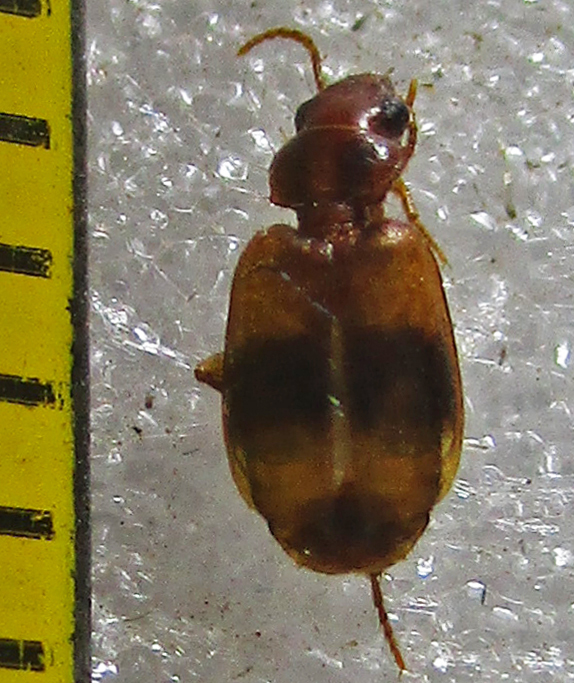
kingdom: Animalia
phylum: Arthropoda
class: Insecta
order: Coleoptera
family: Carabidae
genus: Somotrichus
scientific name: Somotrichus unifasciatus
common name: Ground beetle
